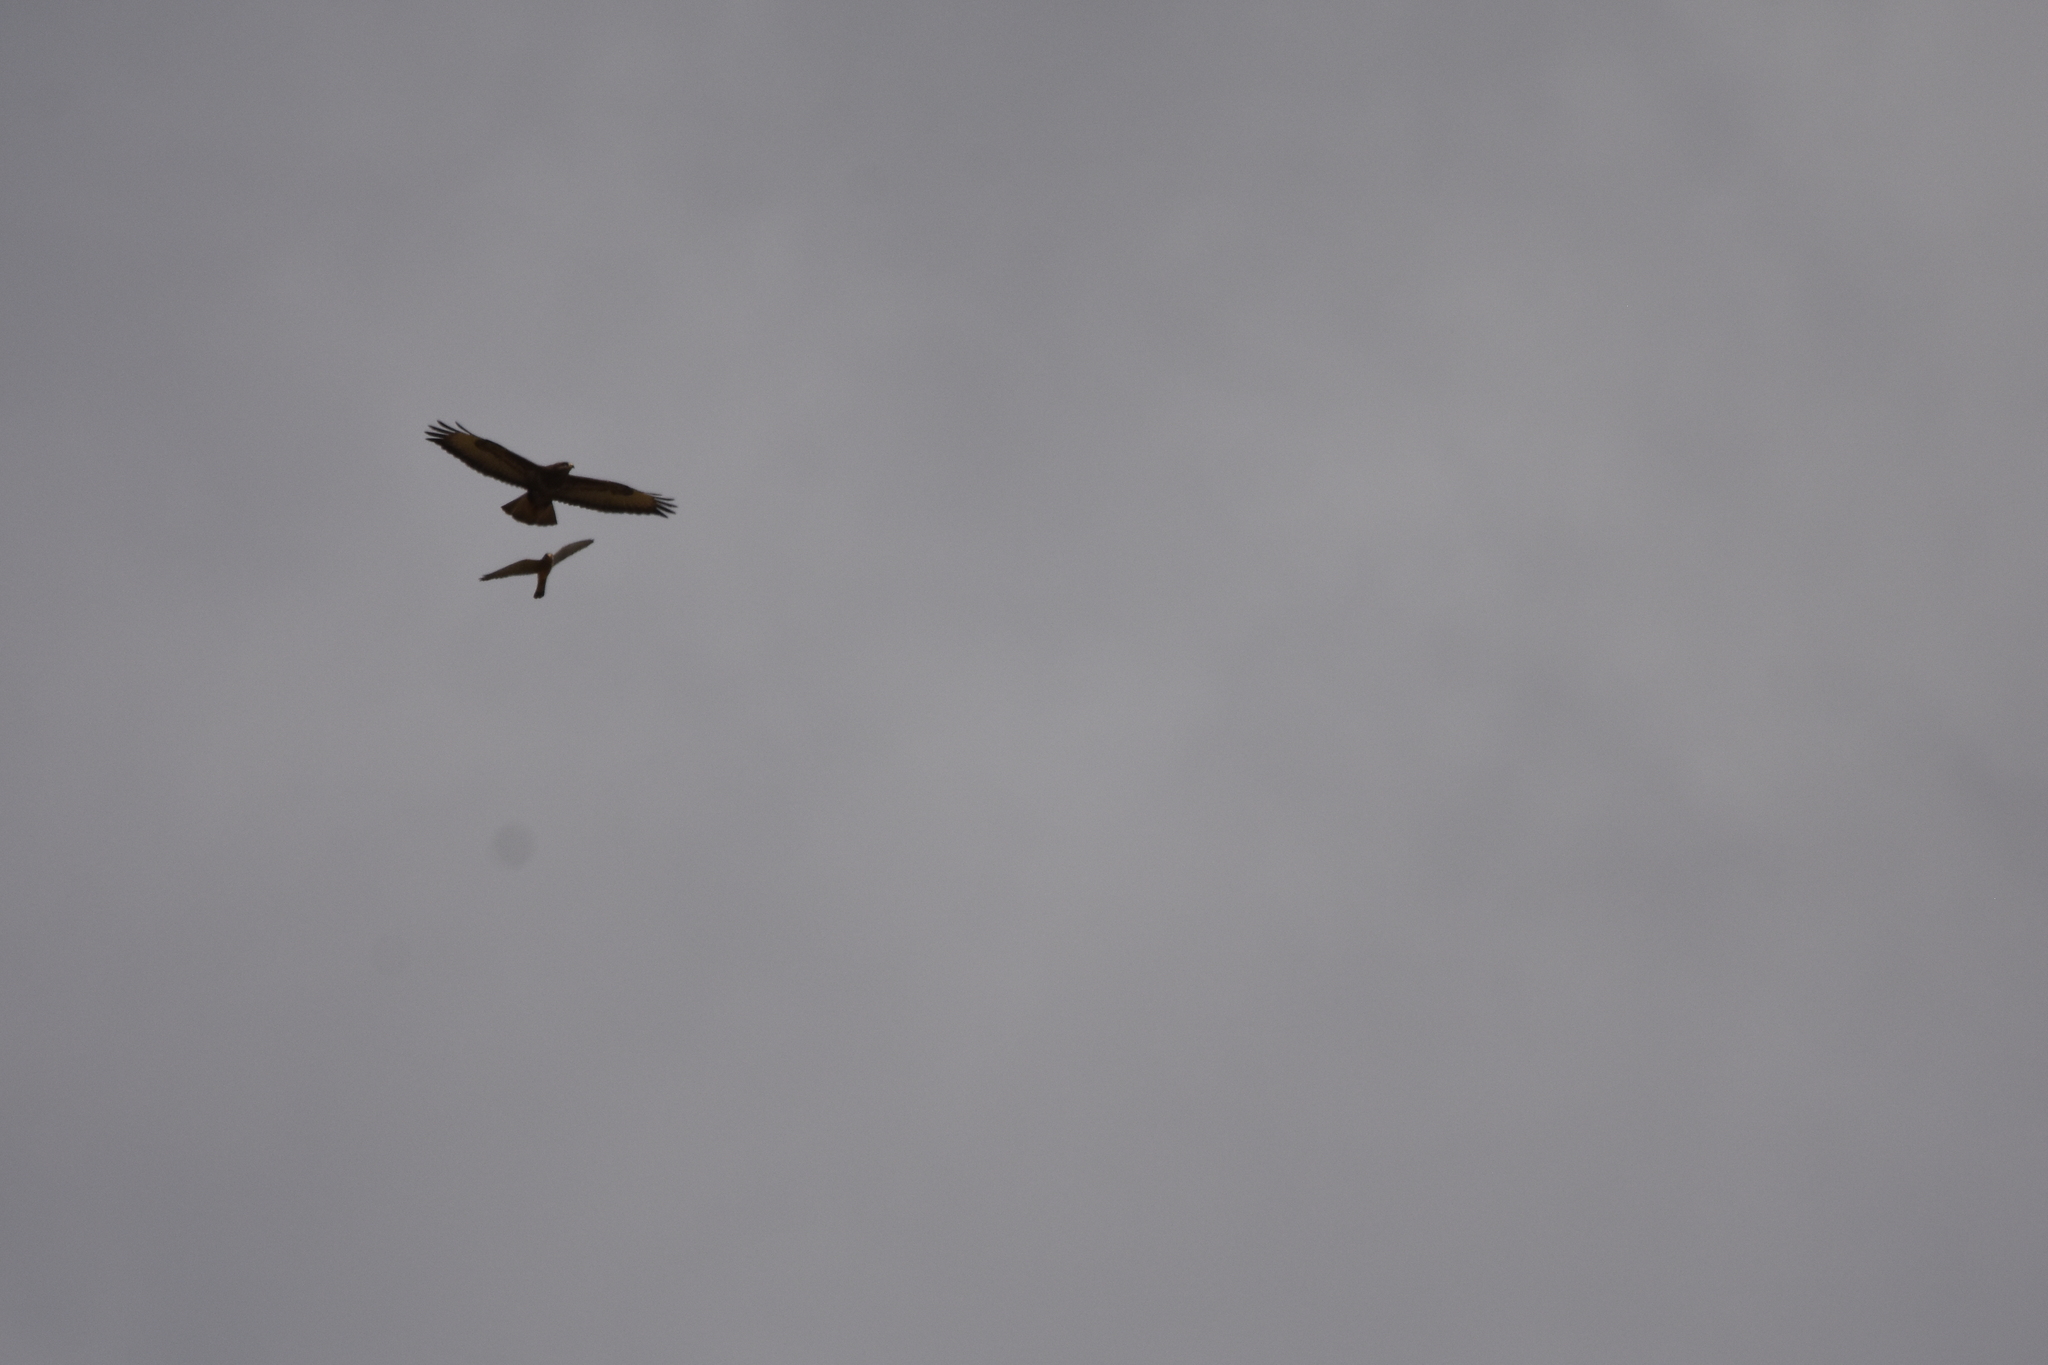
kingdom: Animalia
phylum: Chordata
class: Aves
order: Accipitriformes
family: Accipitridae
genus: Buteo
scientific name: Buteo buteo
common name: Common buzzard
